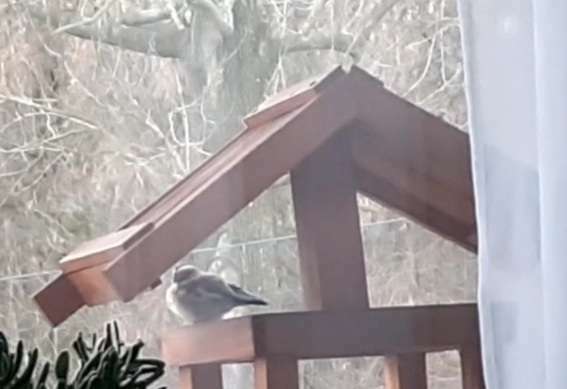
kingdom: Animalia
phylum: Chordata
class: Aves
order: Passeriformes
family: Fringillidae
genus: Carduelis
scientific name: Carduelis carduelis
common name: European goldfinch
